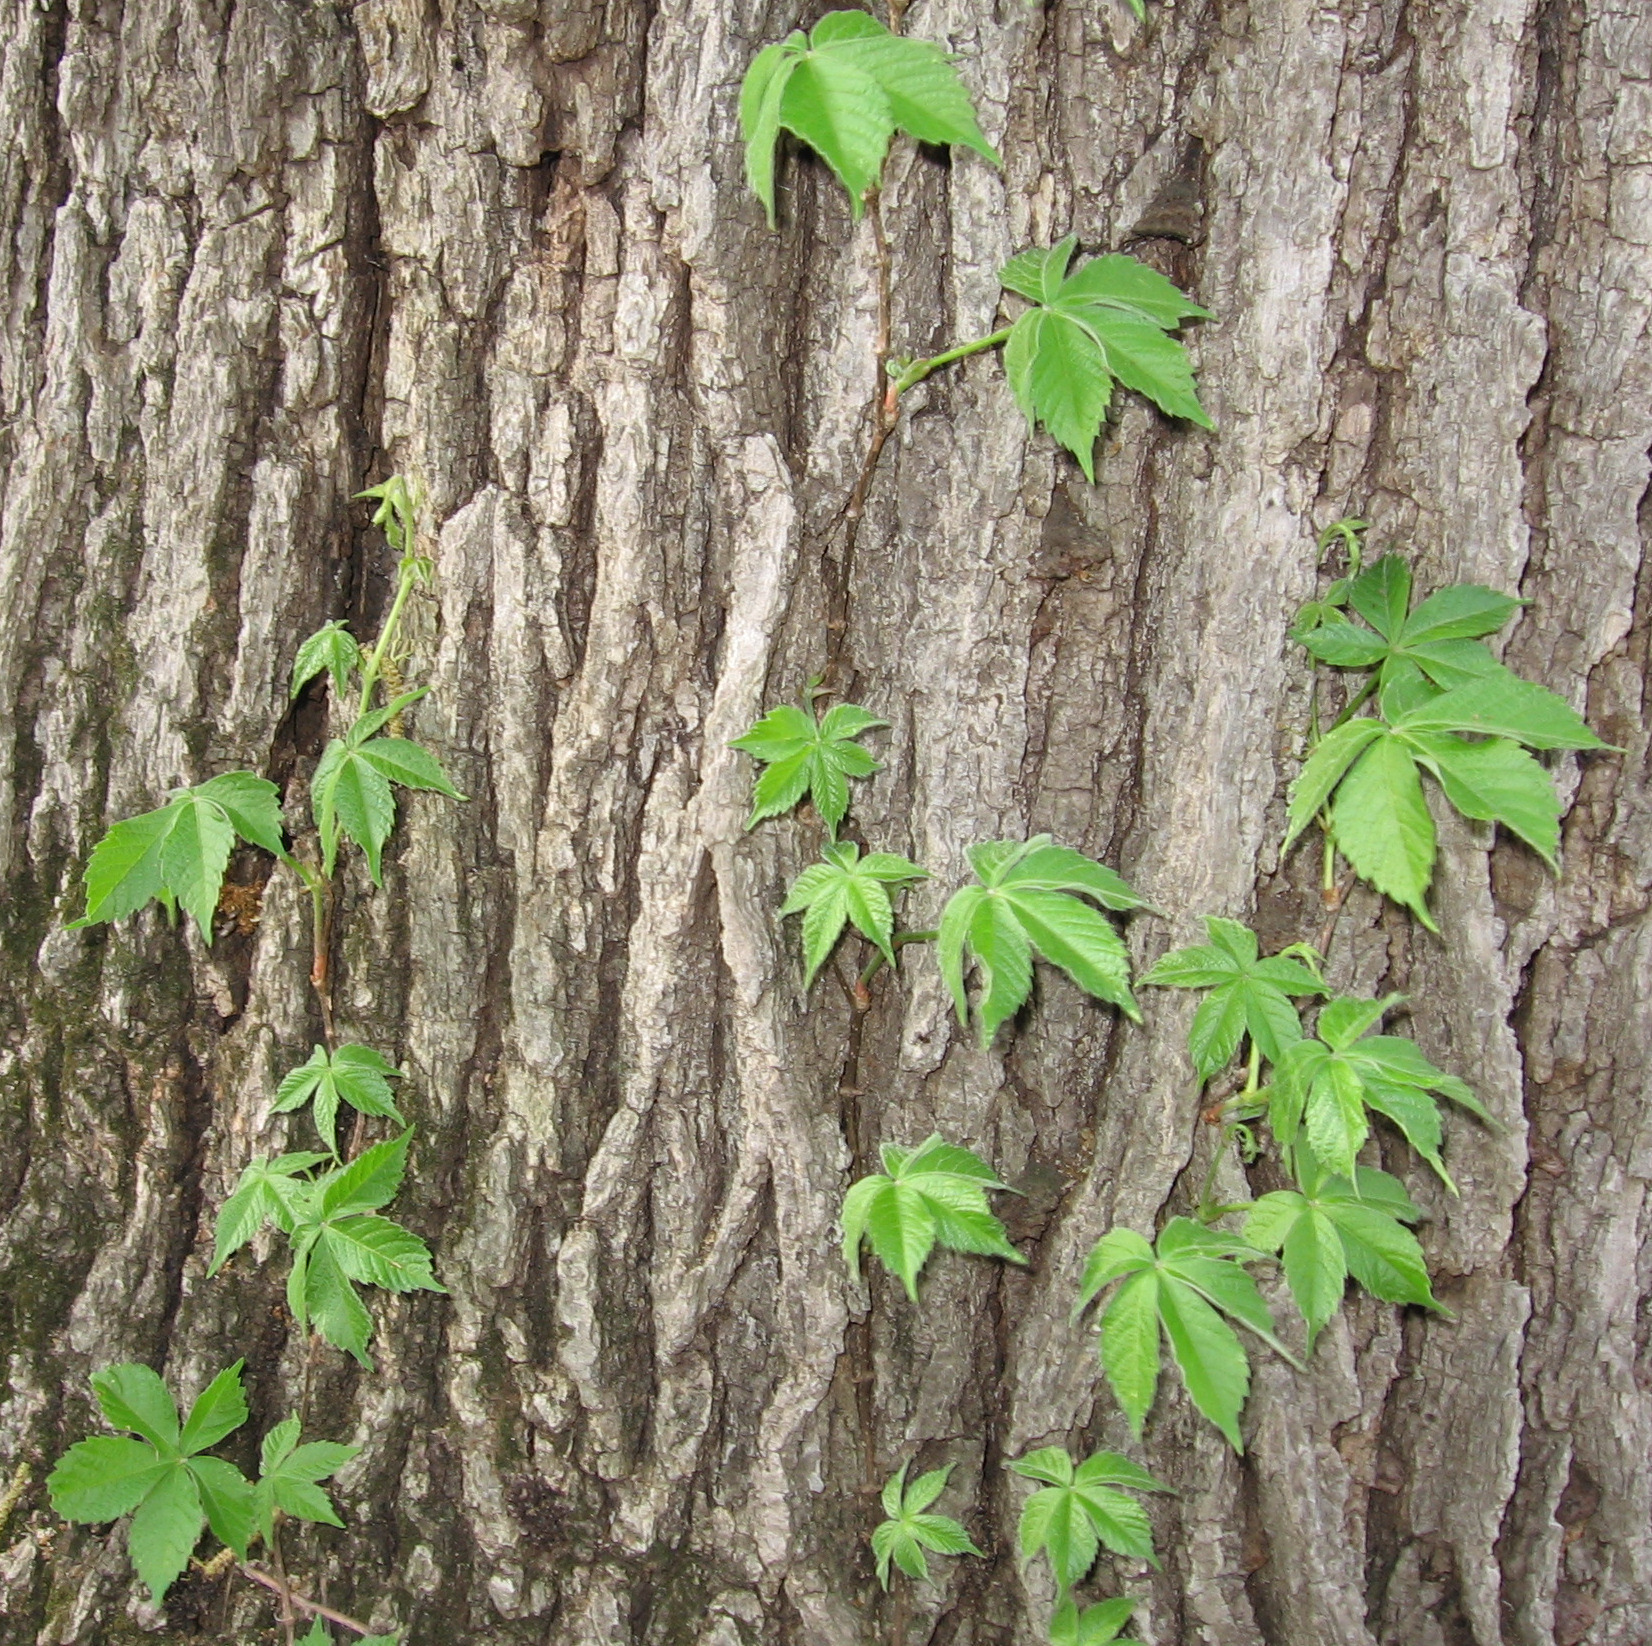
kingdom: Plantae
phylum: Tracheophyta
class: Magnoliopsida
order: Vitales
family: Vitaceae
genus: Parthenocissus
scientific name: Parthenocissus quinquefolia
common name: Virginia-creeper
